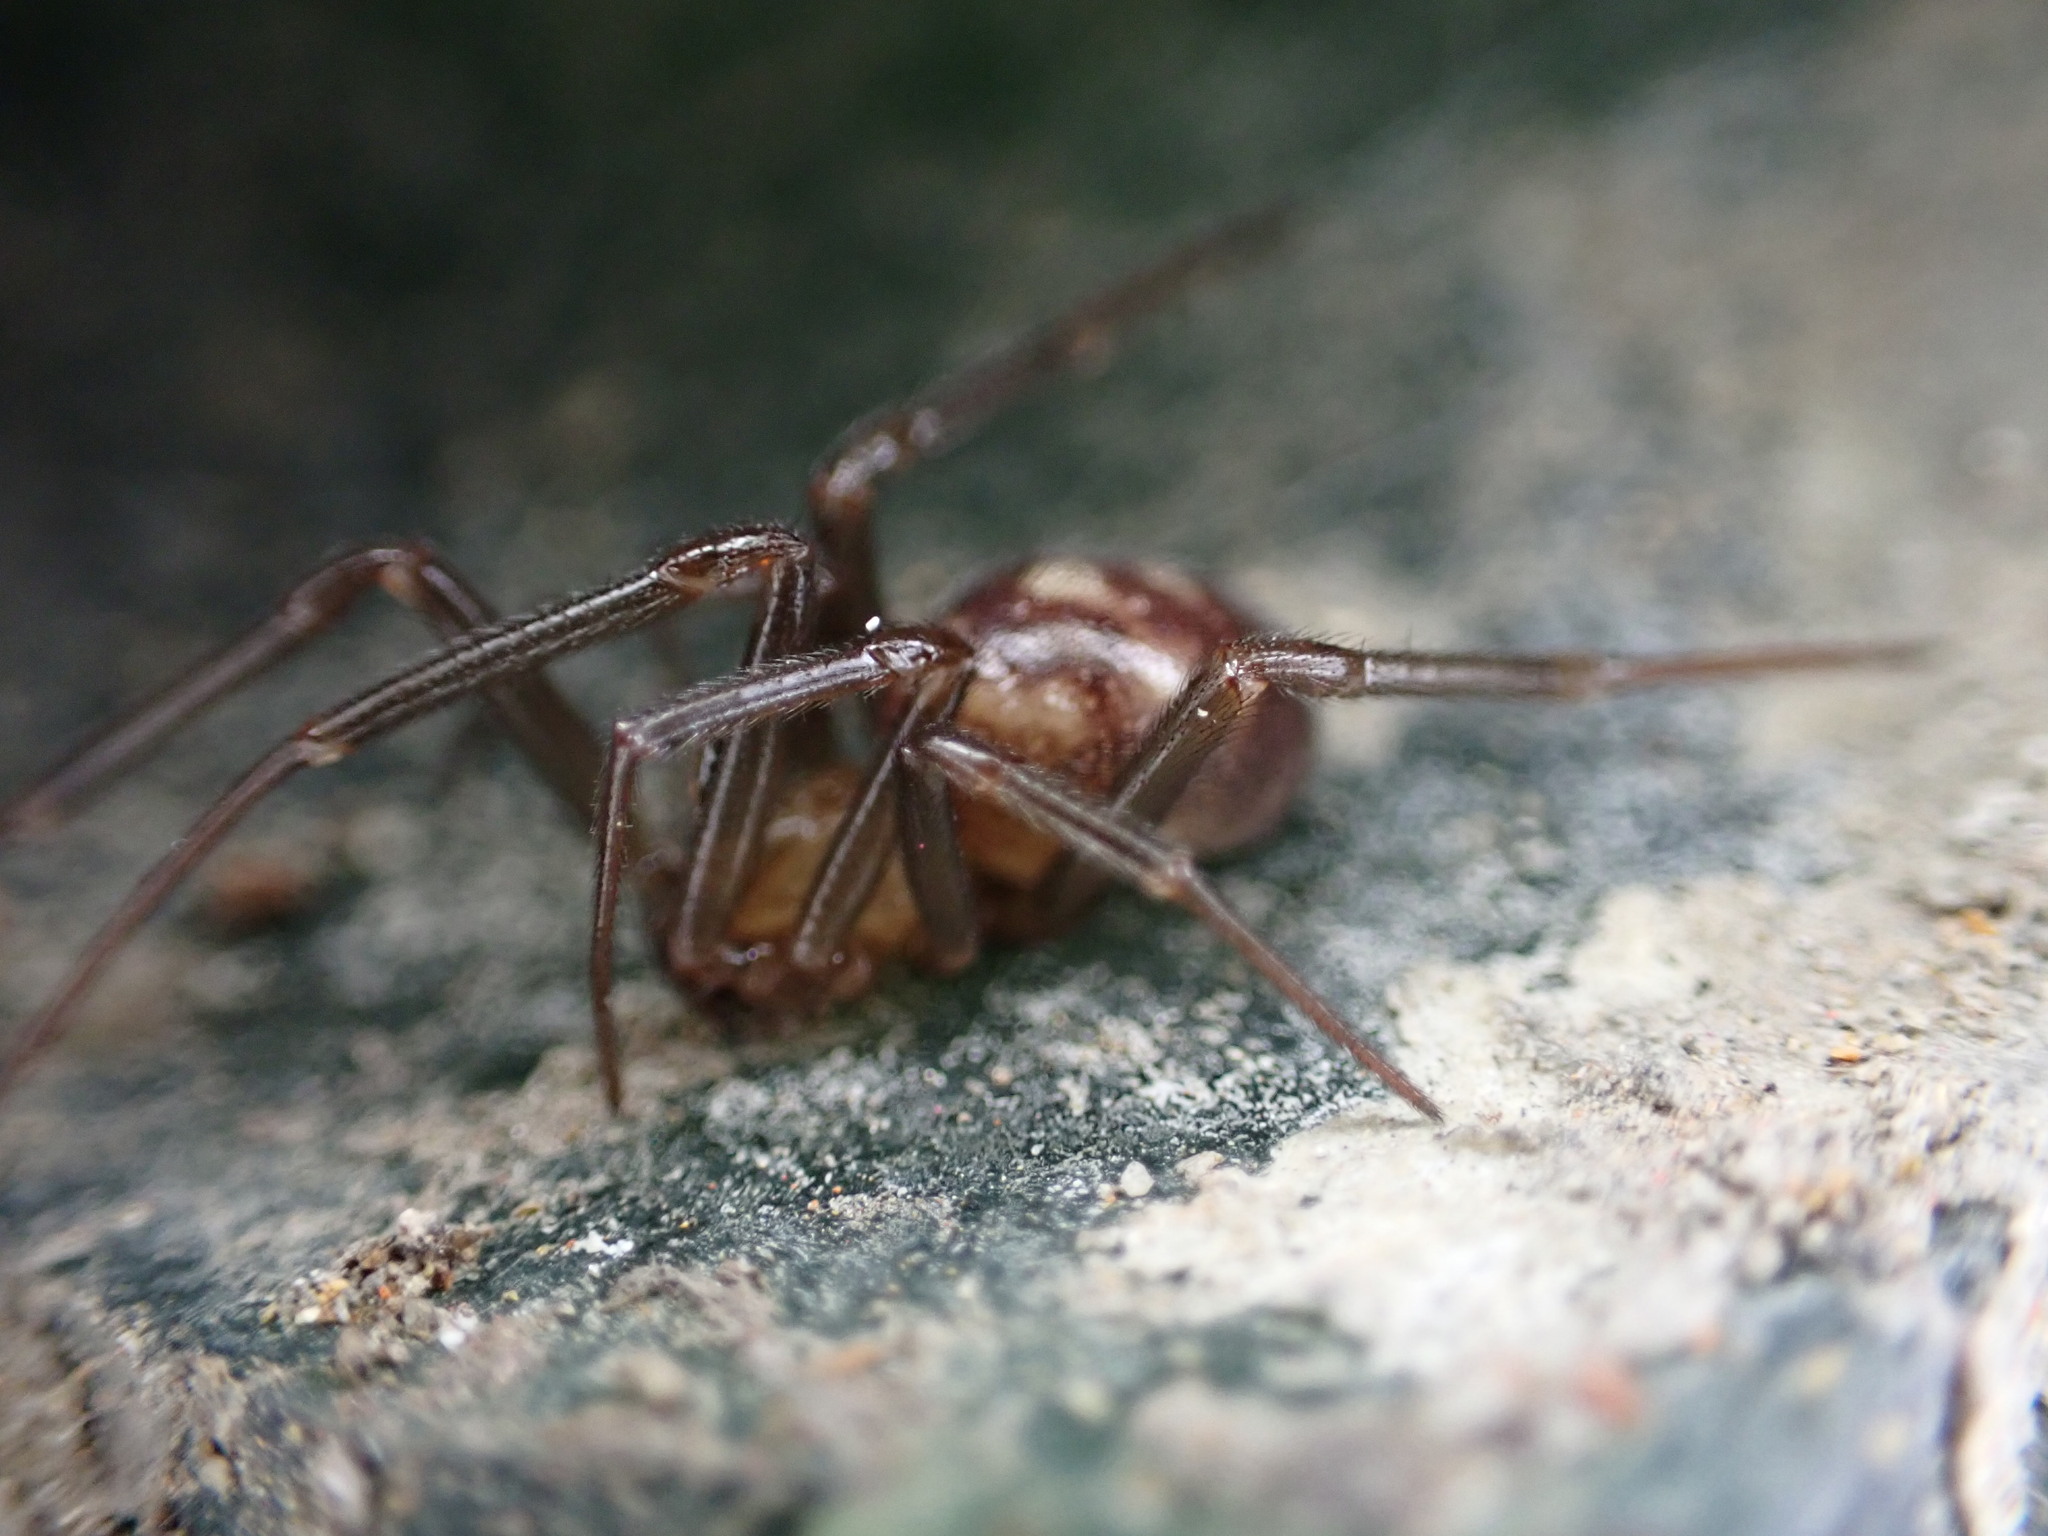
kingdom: Animalia
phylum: Arthropoda
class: Arachnida
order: Araneae
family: Theridiidae
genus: Steatoda
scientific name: Steatoda grossa
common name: False black widow
